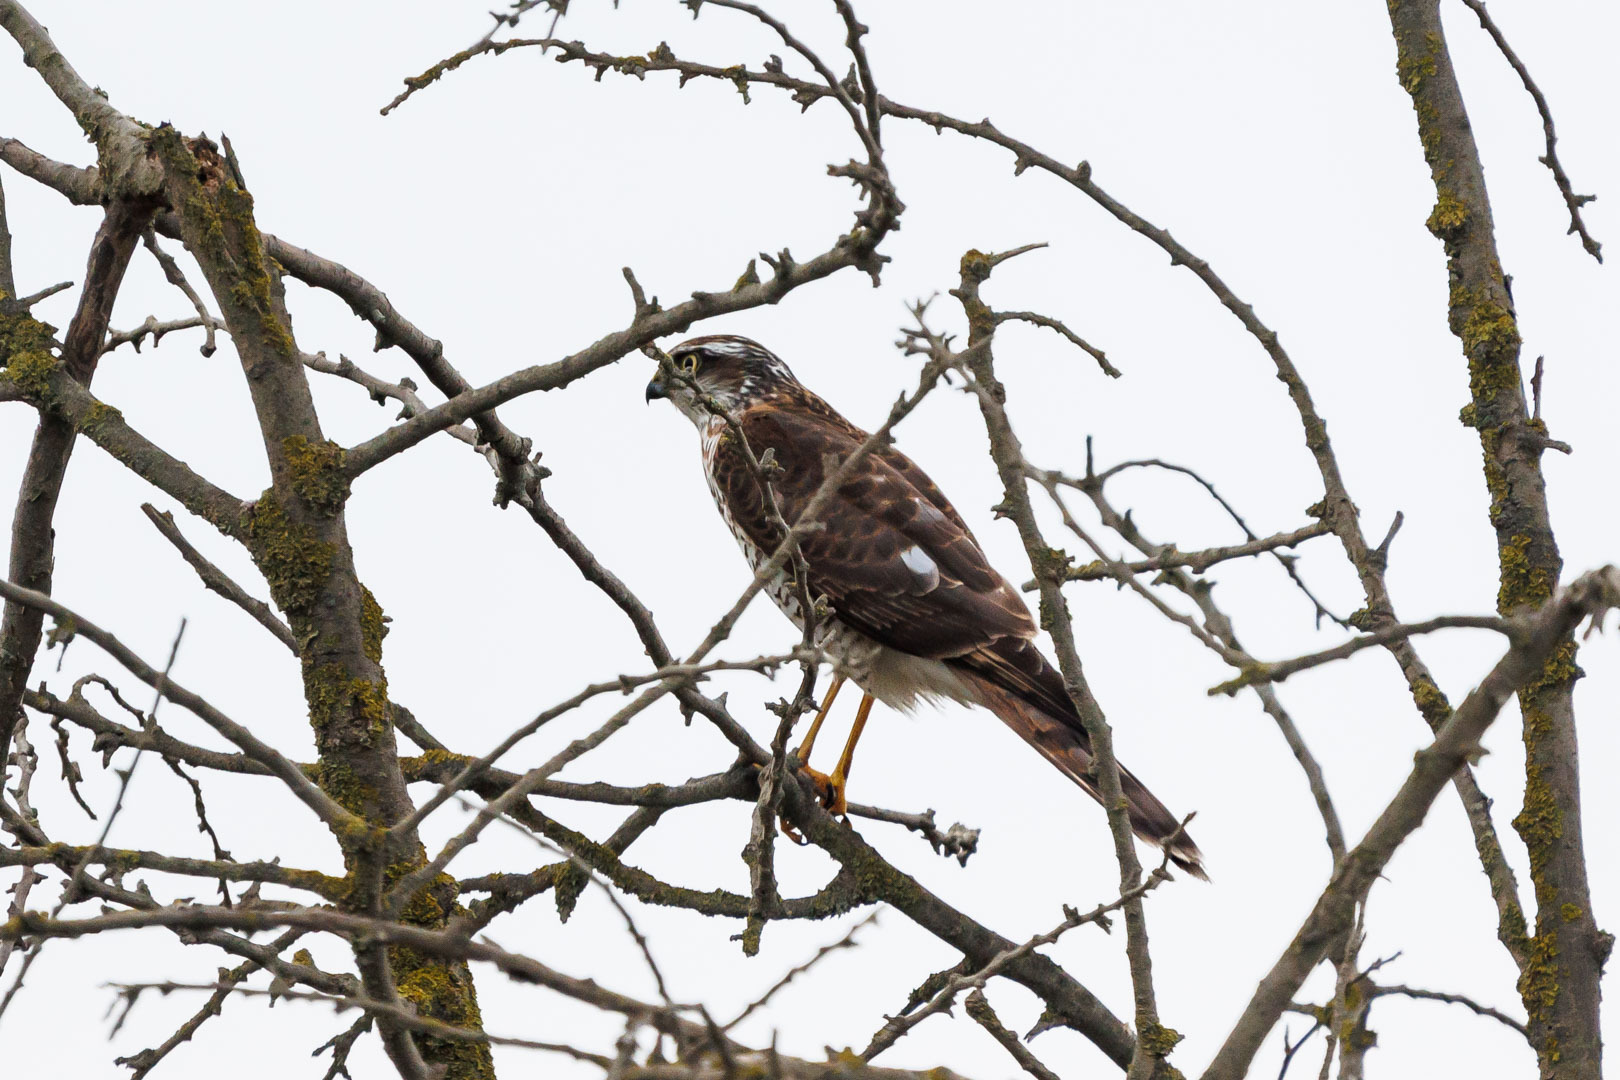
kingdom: Animalia
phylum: Chordata
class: Aves
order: Accipitriformes
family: Accipitridae
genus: Accipiter
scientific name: Accipiter nisus
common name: Eurasian sparrowhawk
